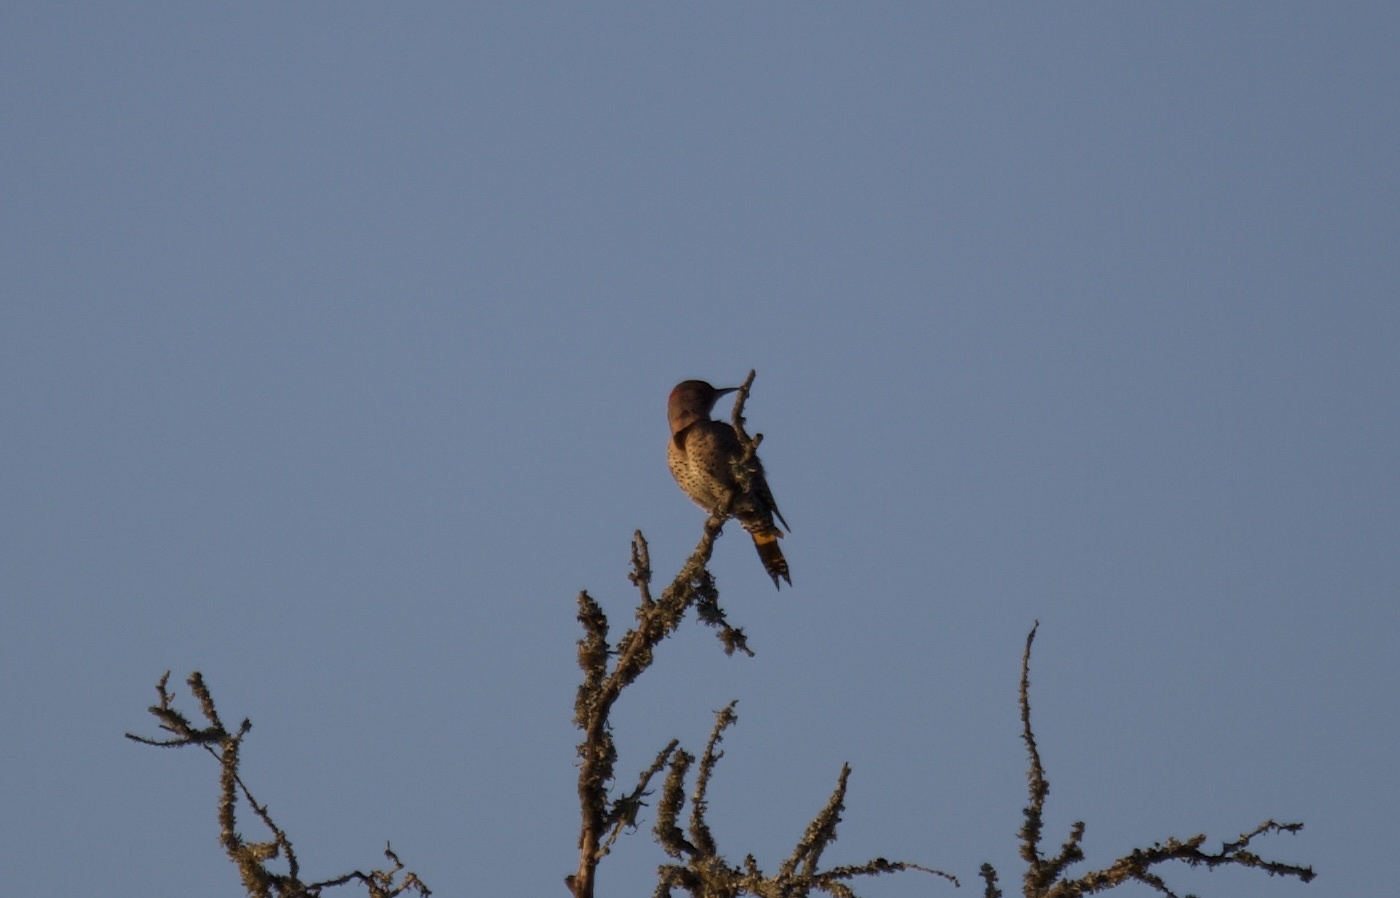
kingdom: Animalia
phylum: Chordata
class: Aves
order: Piciformes
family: Picidae
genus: Colaptes
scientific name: Colaptes auratus
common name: Northern flicker
